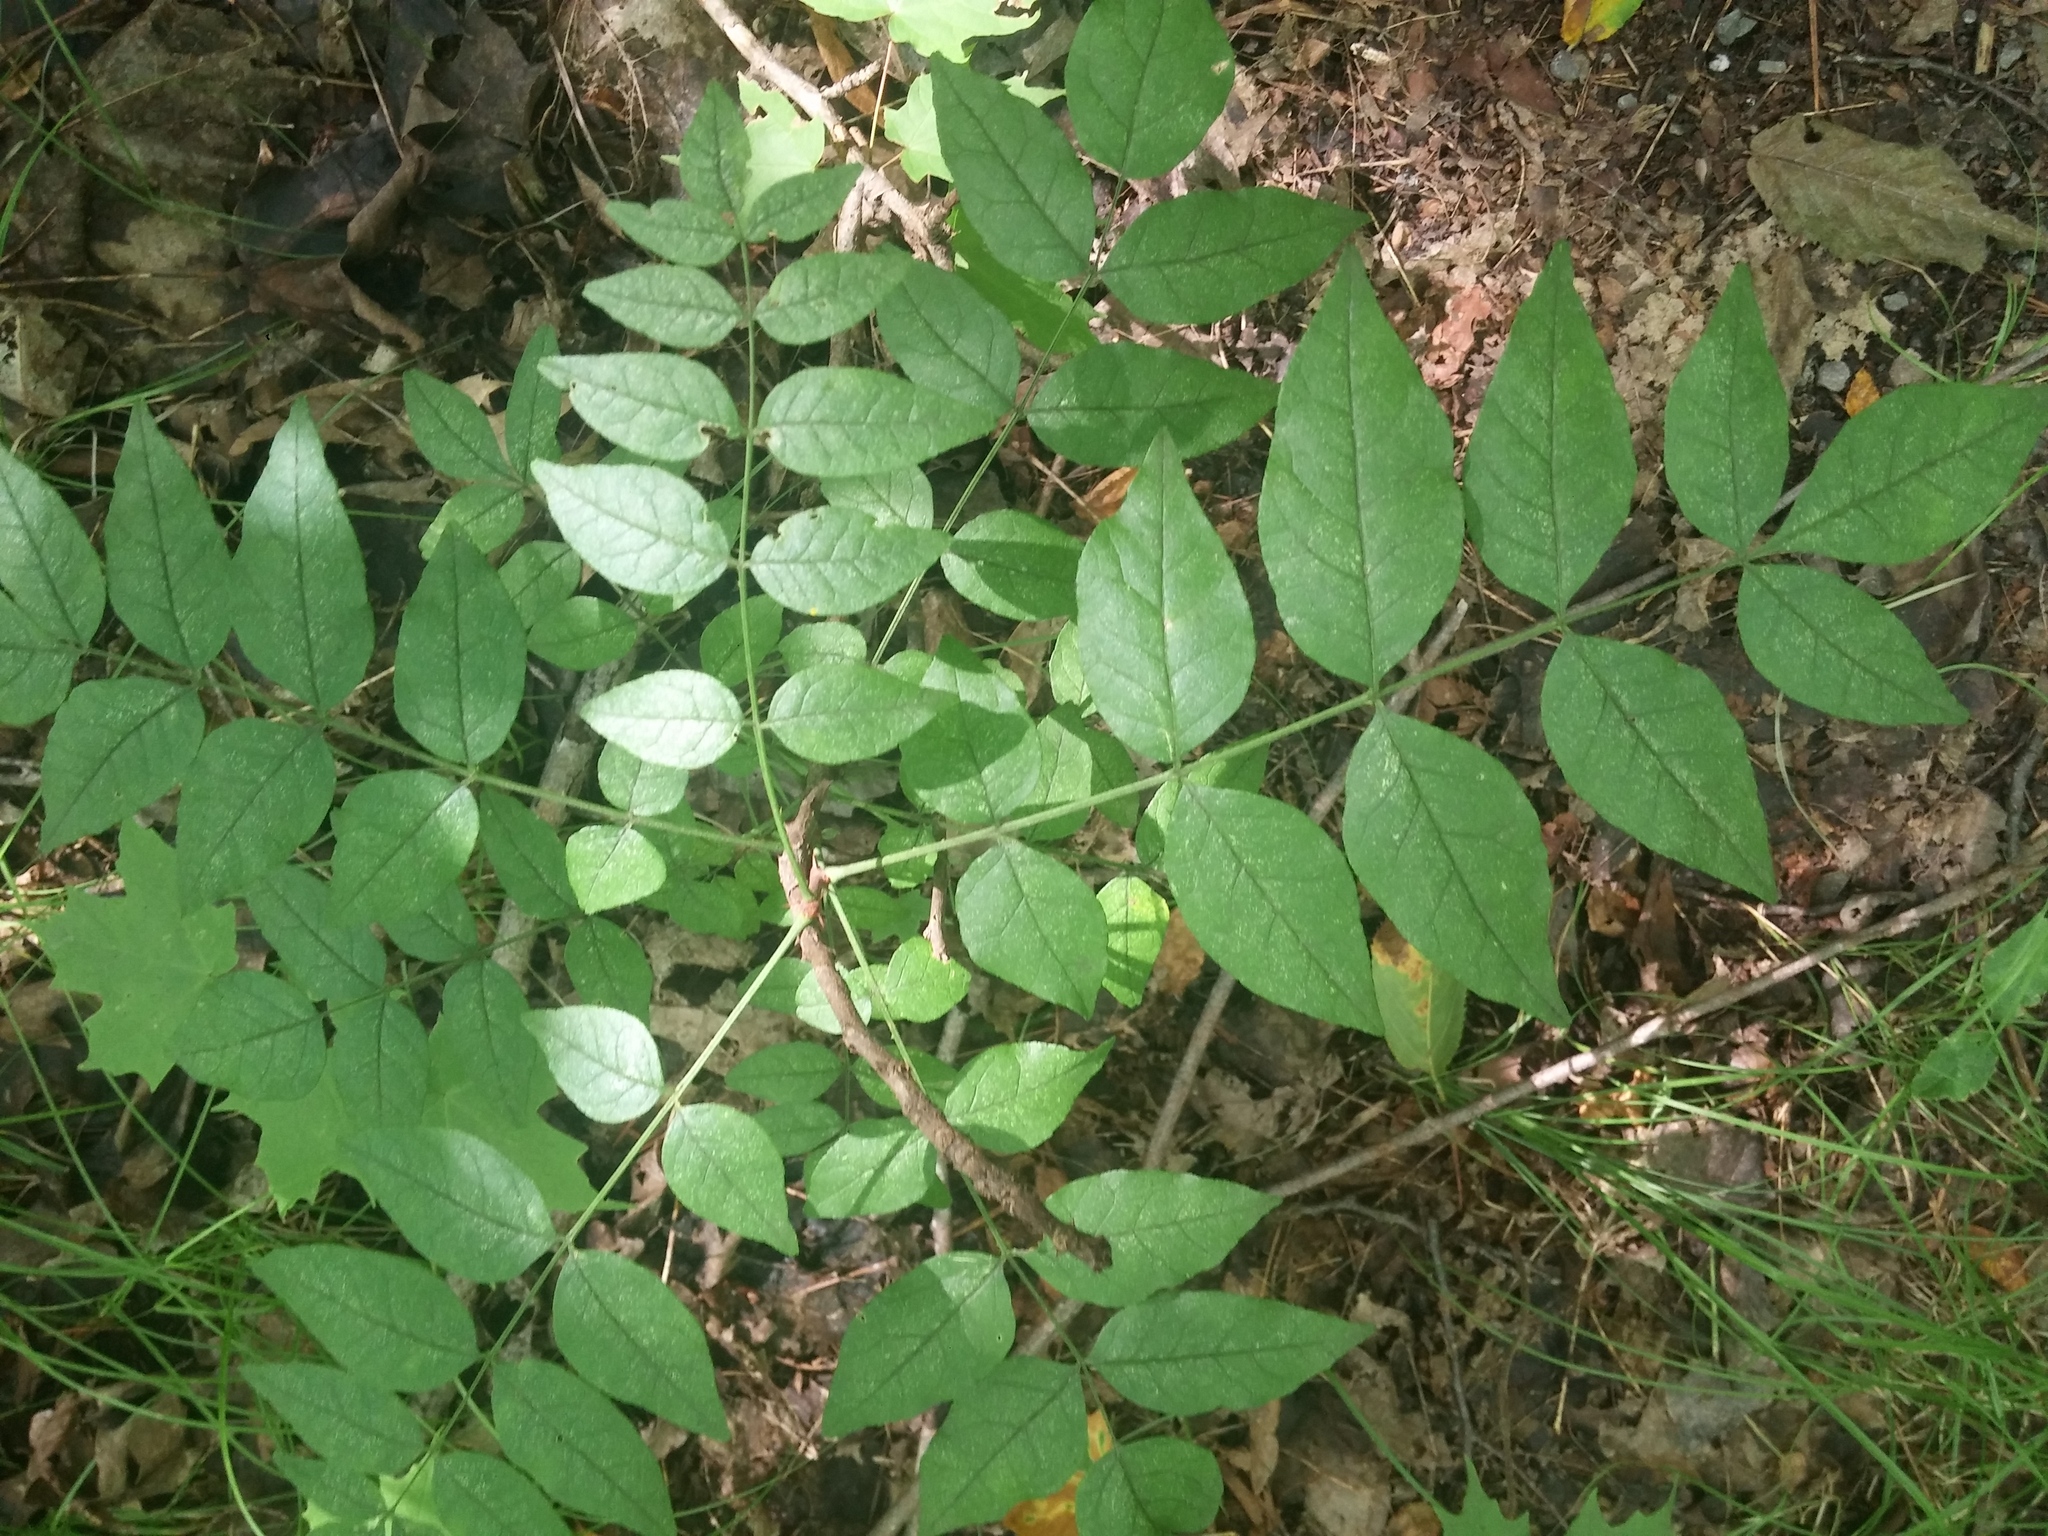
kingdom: Plantae
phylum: Tracheophyta
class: Magnoliopsida
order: Sapindales
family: Rutaceae
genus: Zanthoxylum
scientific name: Zanthoxylum americanum
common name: Northern prickly-ash
